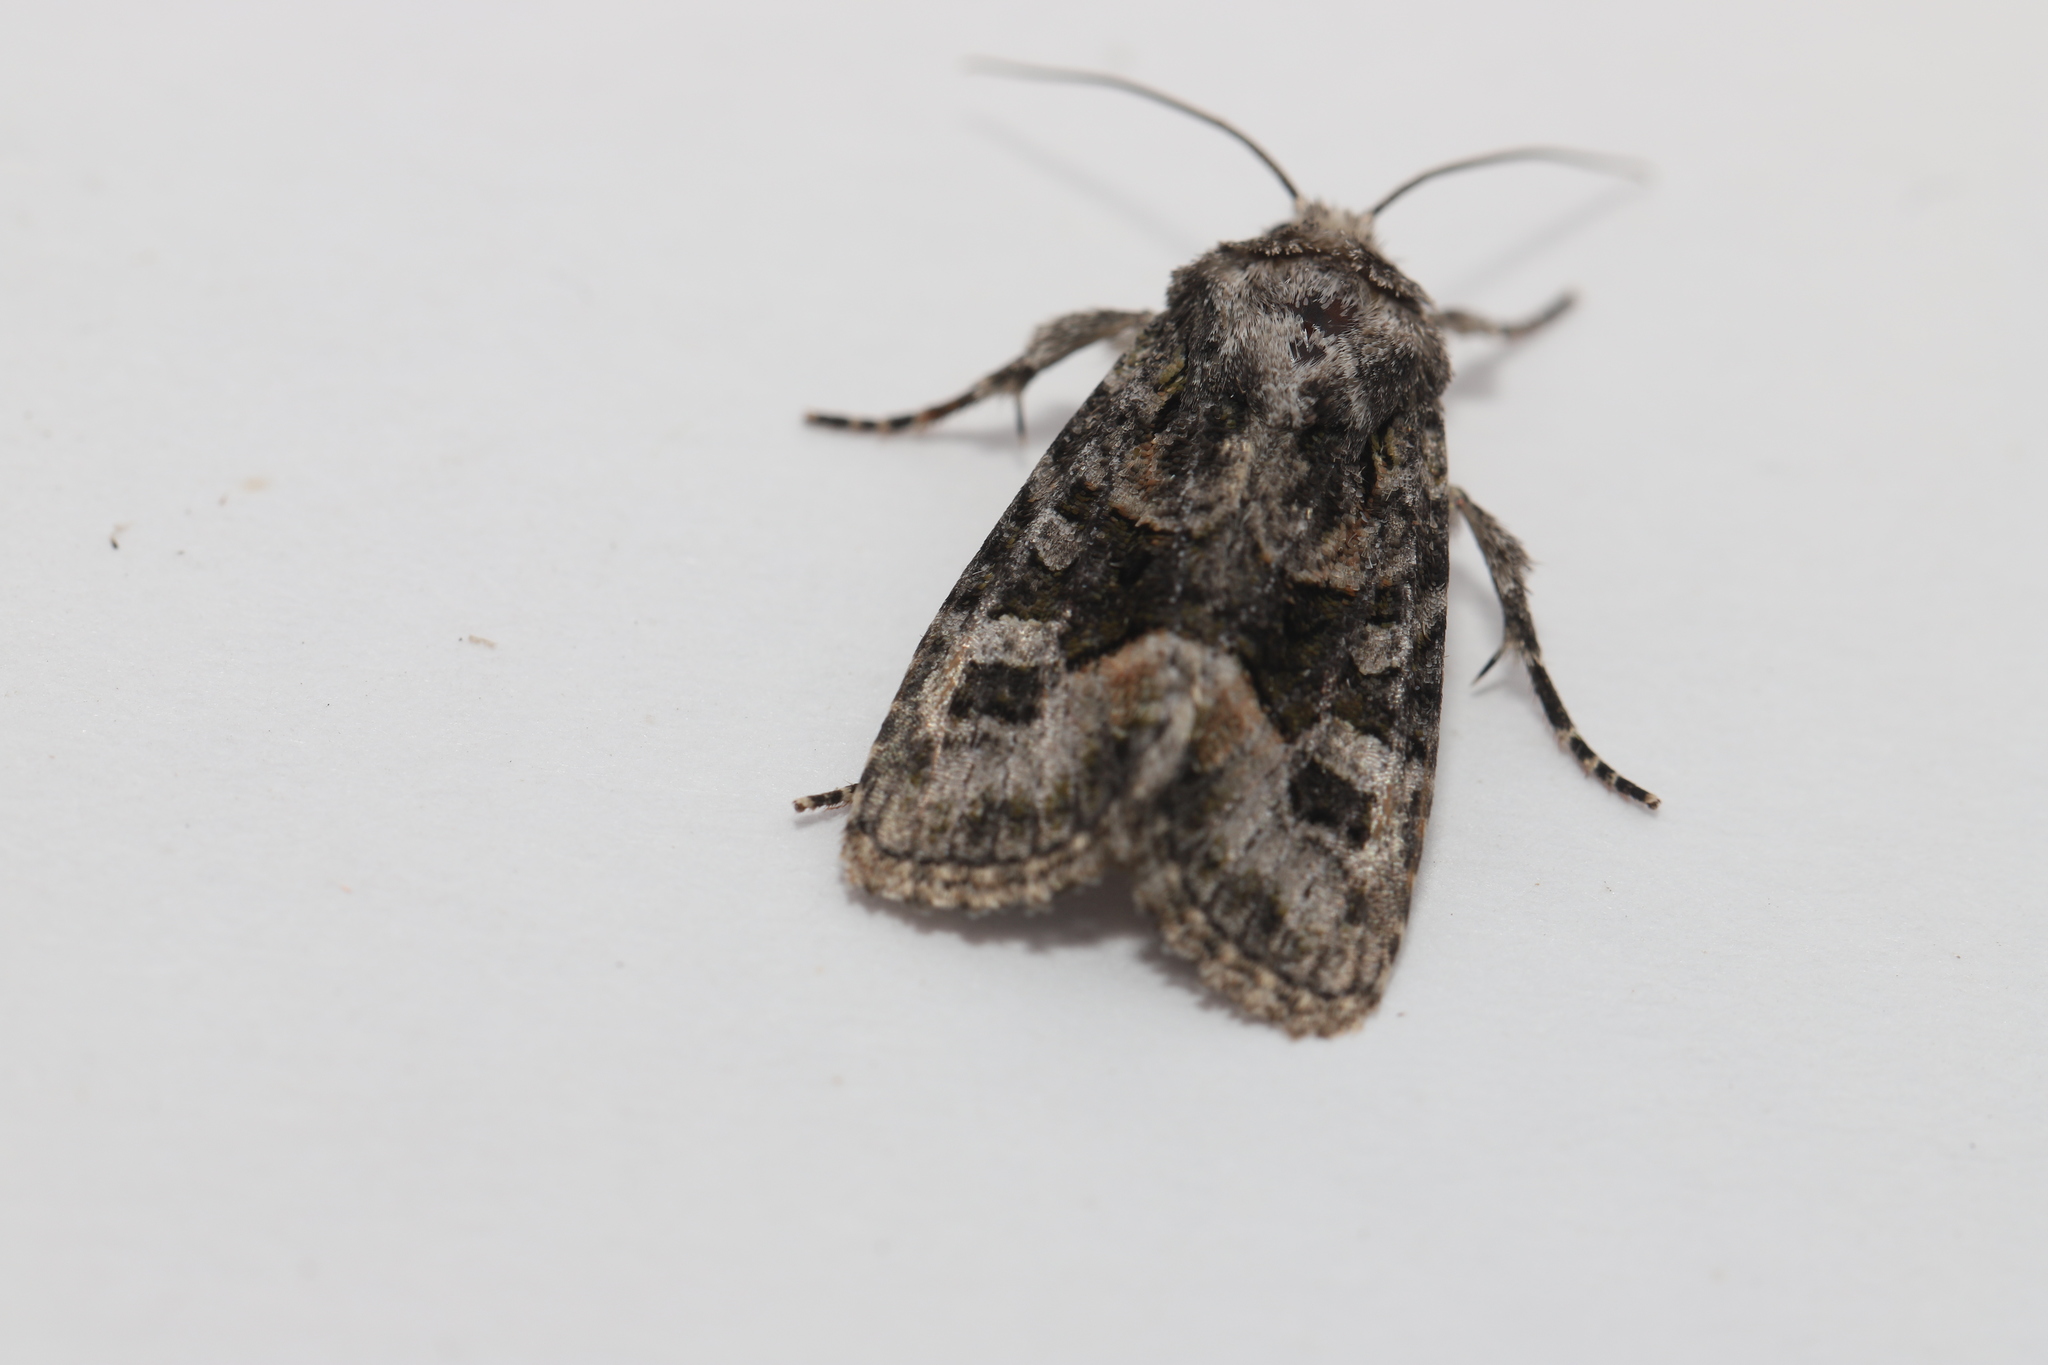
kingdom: Animalia
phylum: Arthropoda
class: Insecta
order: Lepidoptera
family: Noctuidae
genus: Lacinipolia
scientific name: Lacinipolia olivacea
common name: Olive arches moth
